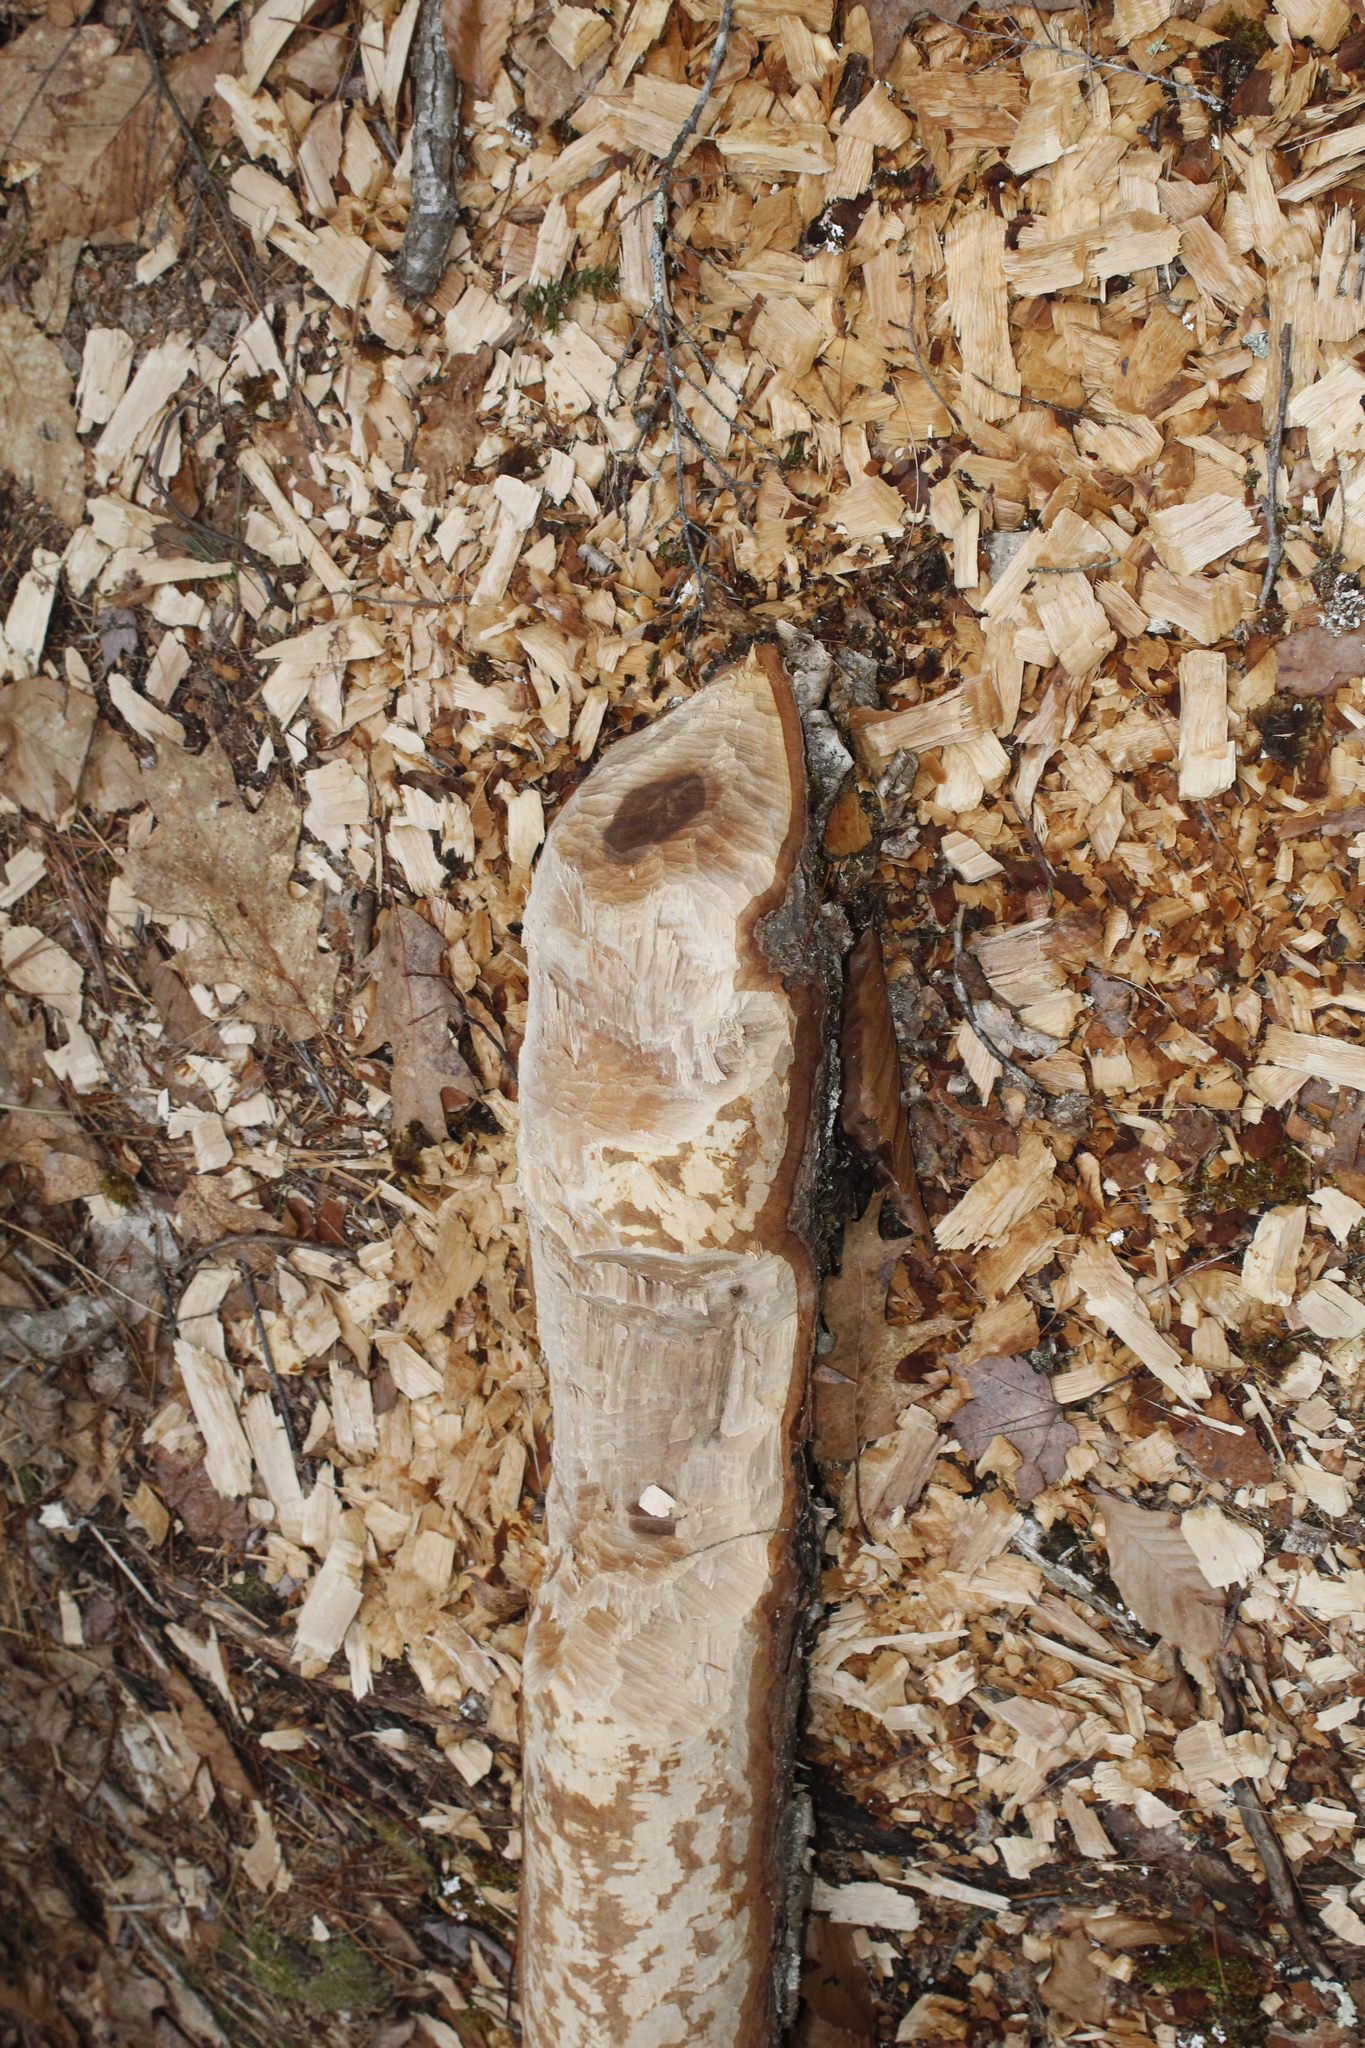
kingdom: Animalia
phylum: Chordata
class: Mammalia
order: Rodentia
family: Castoridae
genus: Castor
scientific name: Castor canadensis
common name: American beaver
